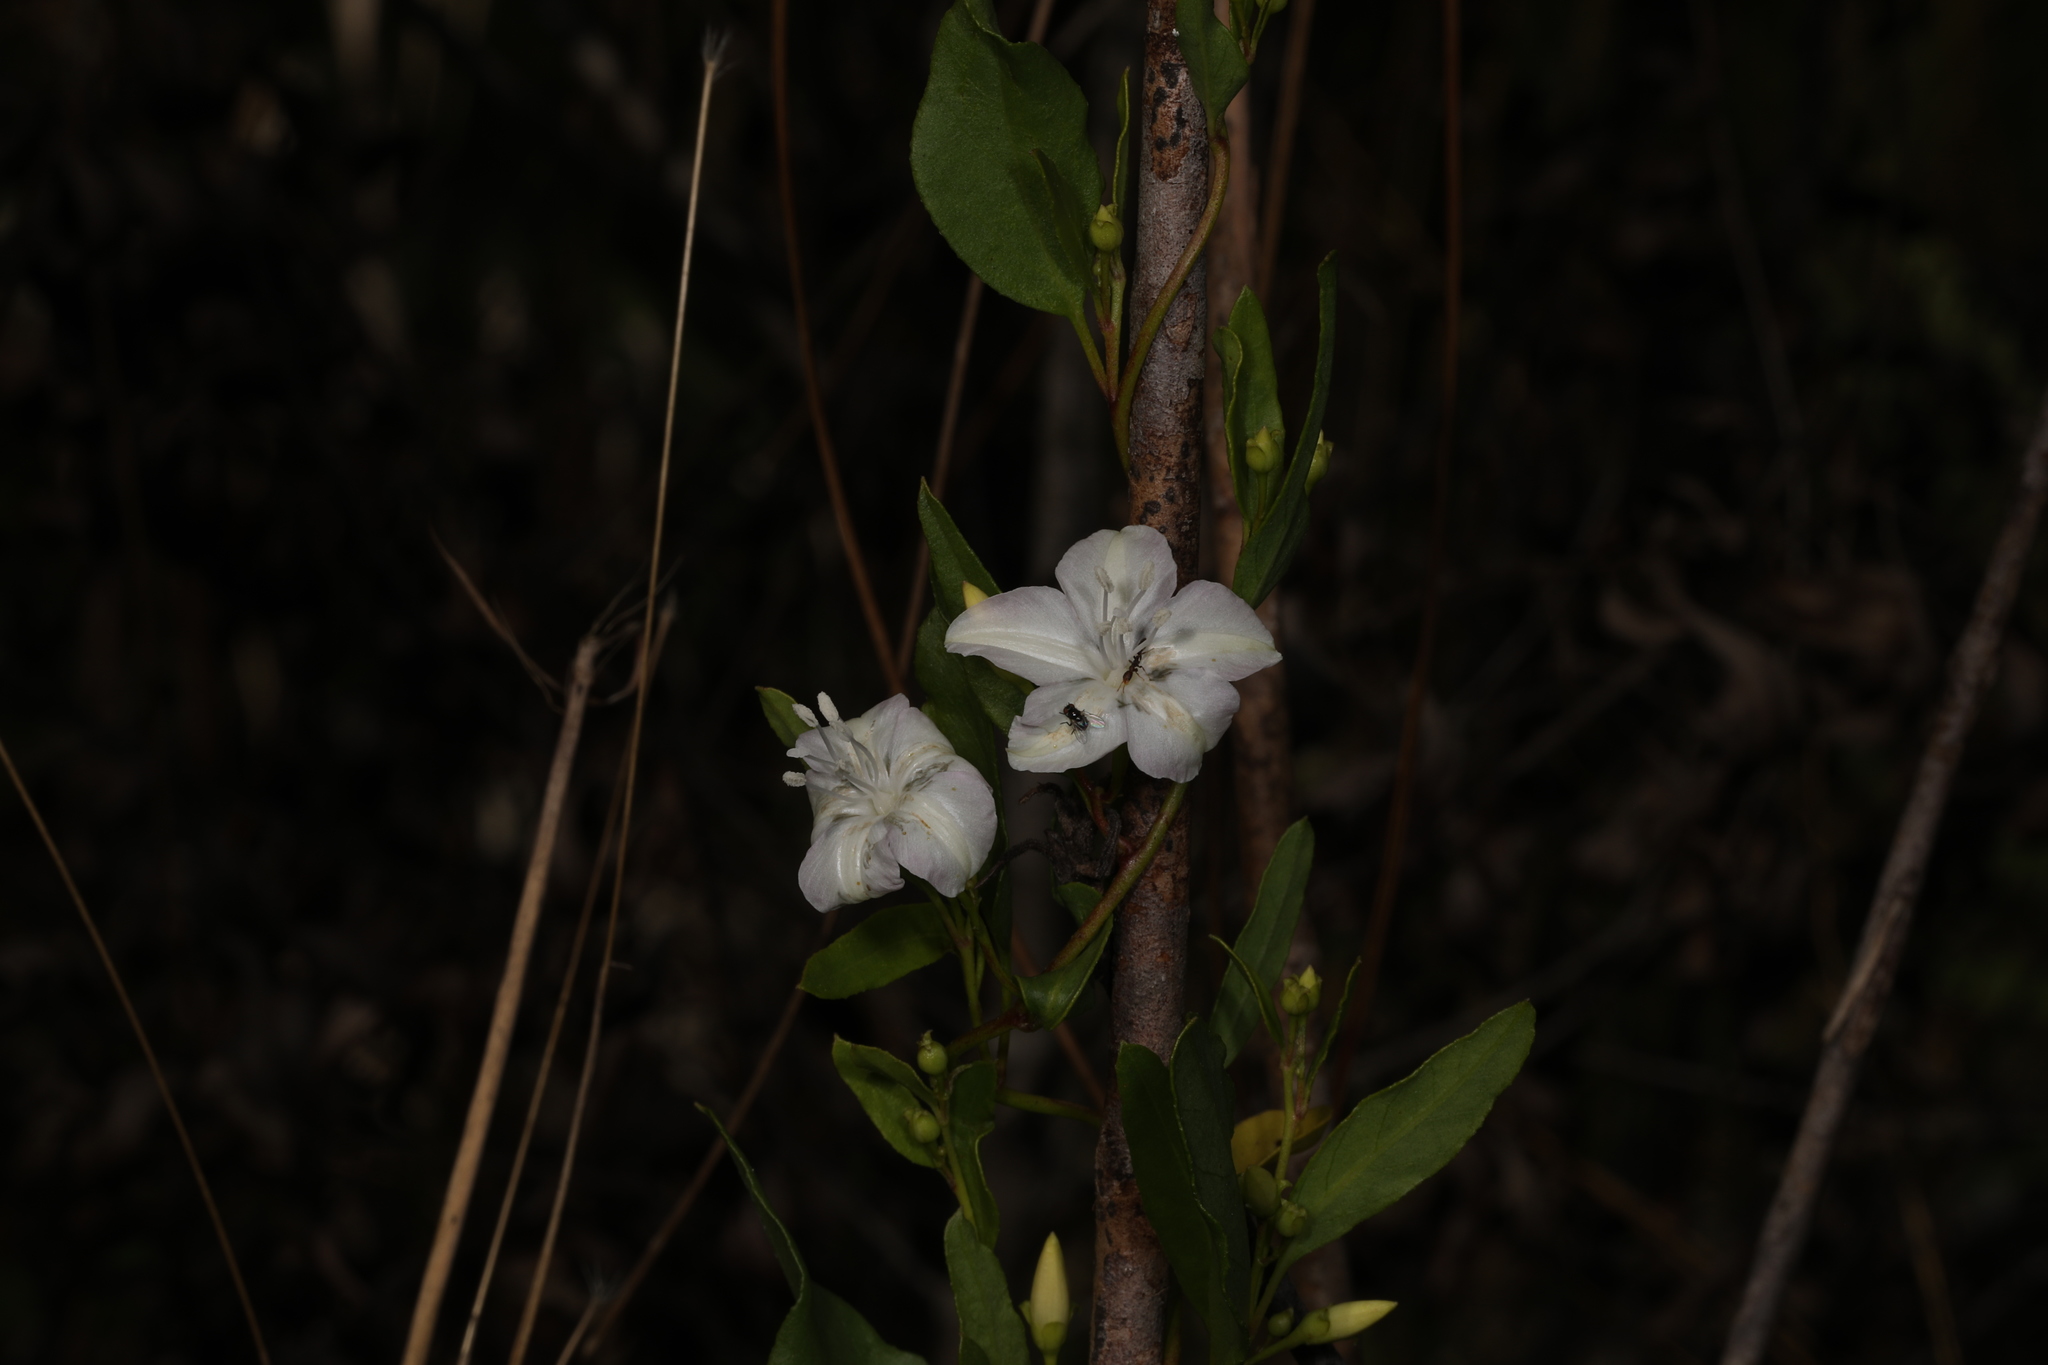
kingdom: Plantae
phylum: Tracheophyta
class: Magnoliopsida
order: Solanales
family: Convolvulaceae
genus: Jacquemontia
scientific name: Jacquemontia curtissii
